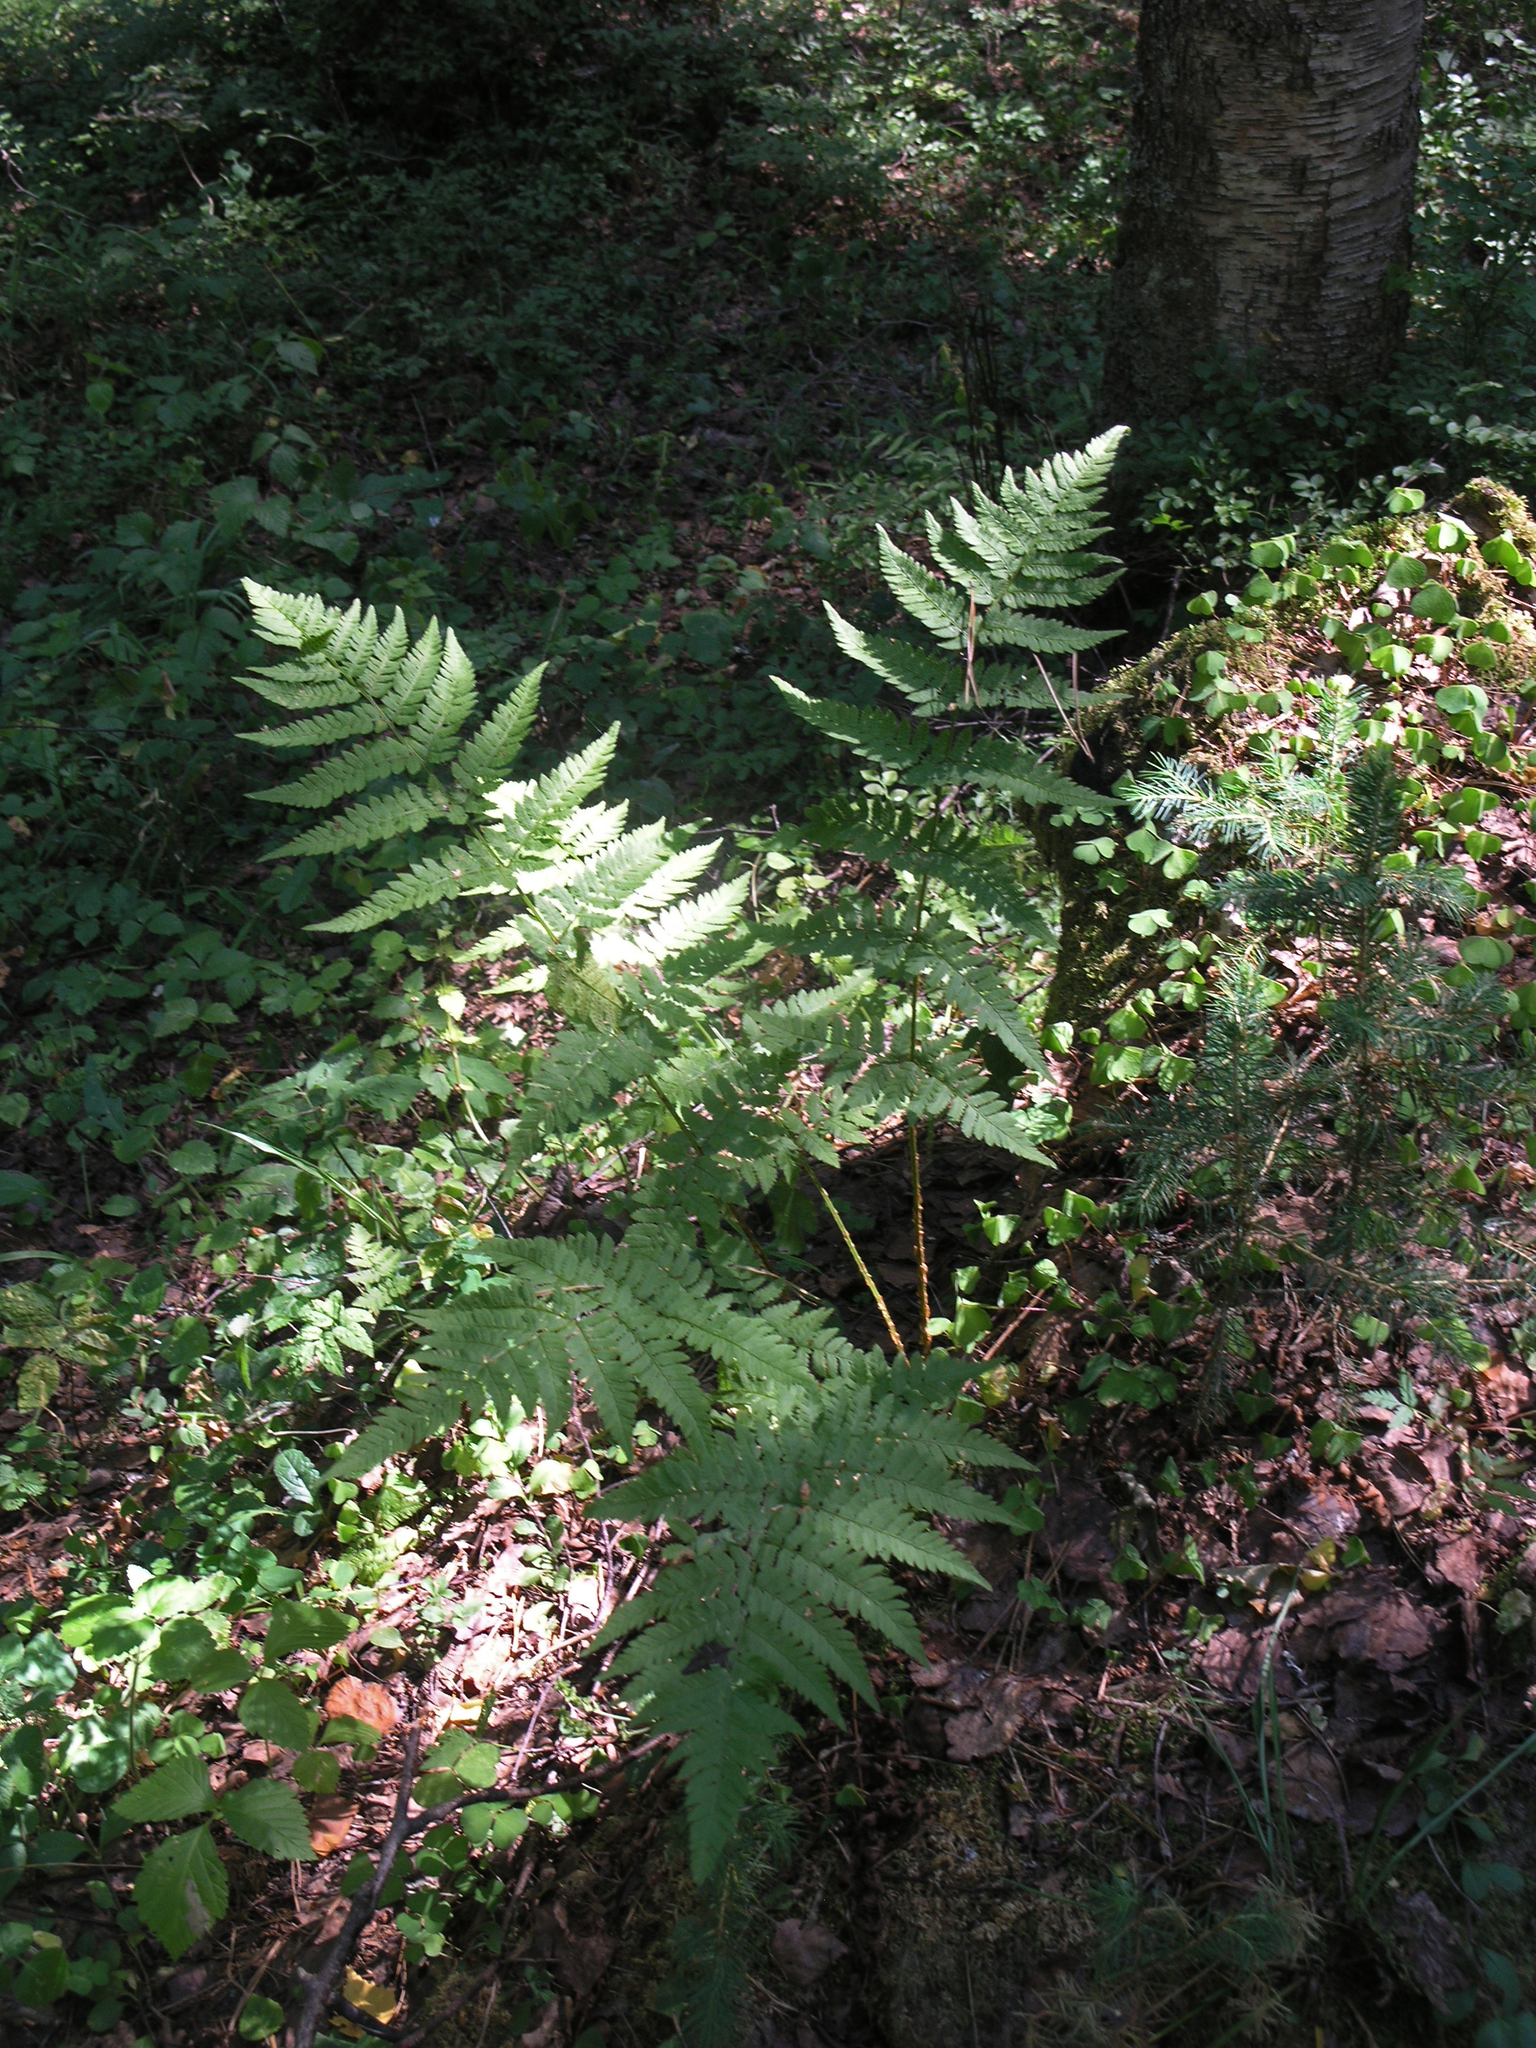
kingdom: Plantae
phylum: Tracheophyta
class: Polypodiopsida
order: Polypodiales
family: Dryopteridaceae
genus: Dryopteris
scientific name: Dryopteris carthusiana
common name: Narrow buckler-fern
